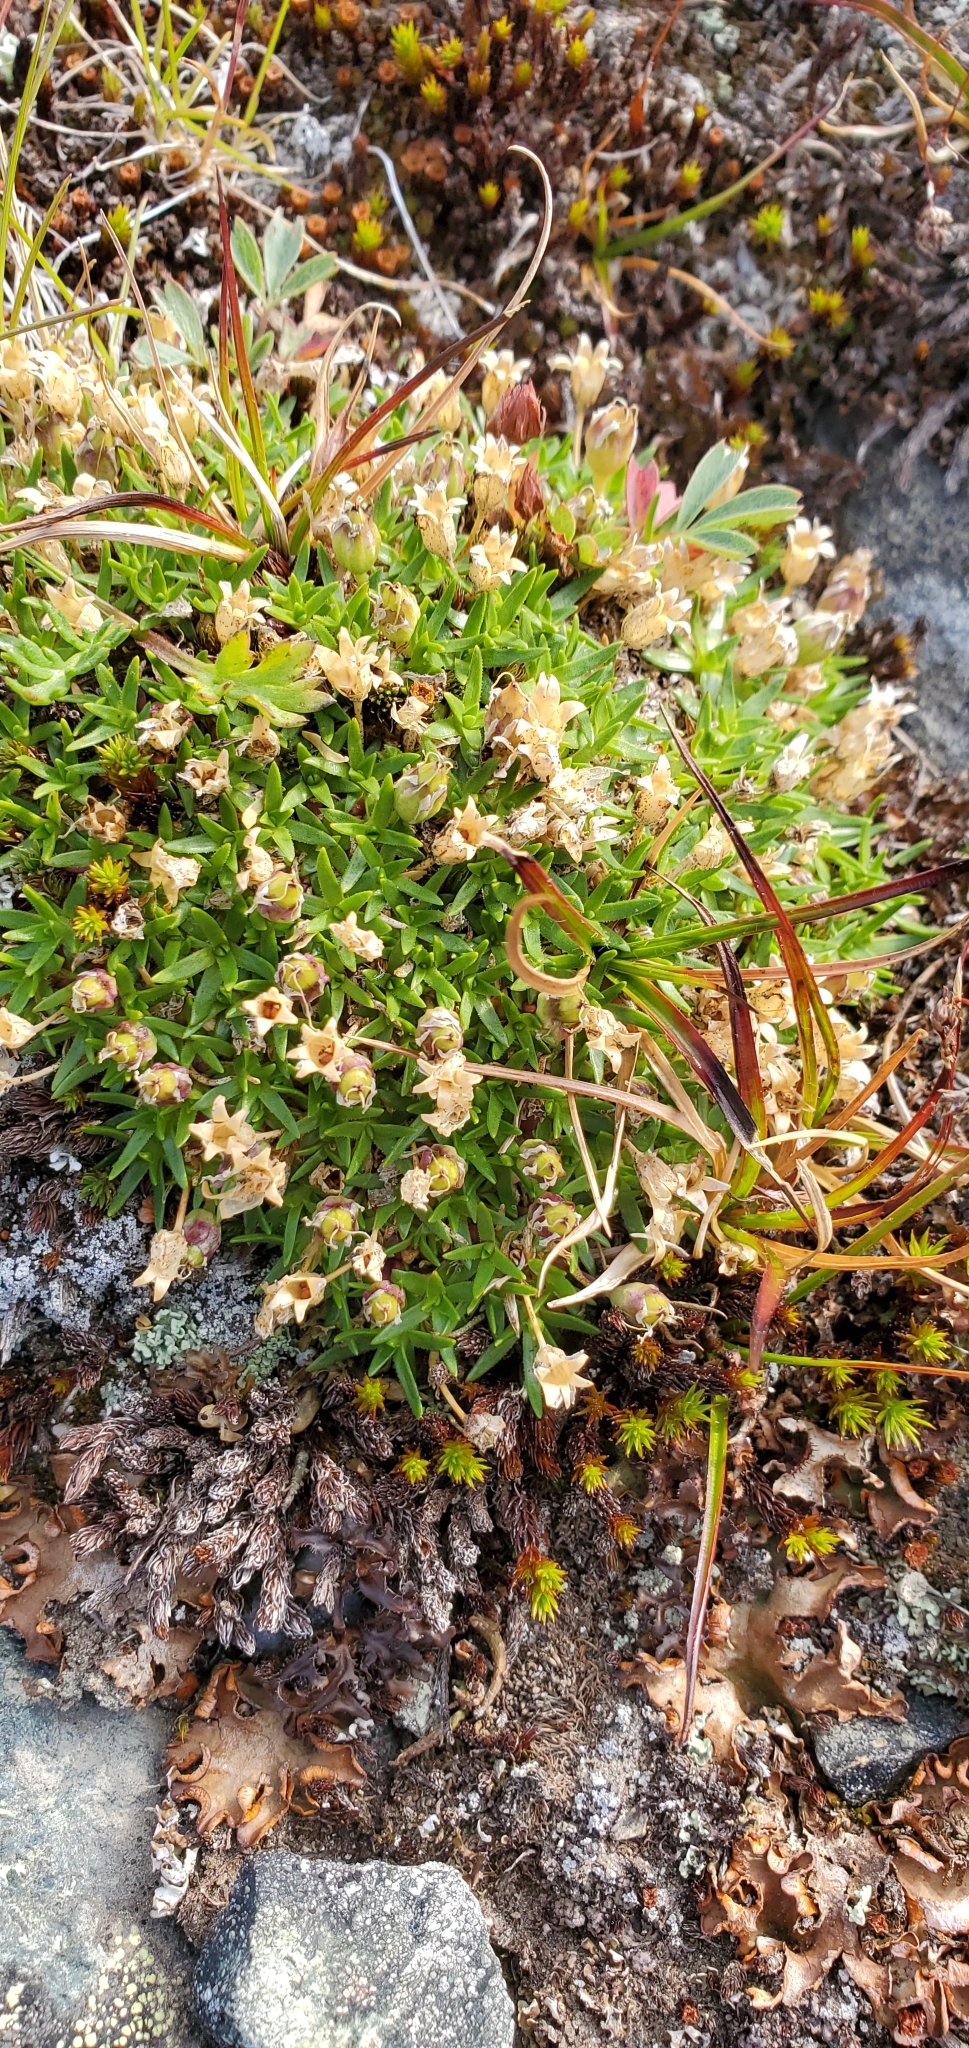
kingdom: Plantae
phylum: Tracheophyta
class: Magnoliopsida
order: Caryophyllales
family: Caryophyllaceae
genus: Silene
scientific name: Silene acaulis
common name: Moss campion
